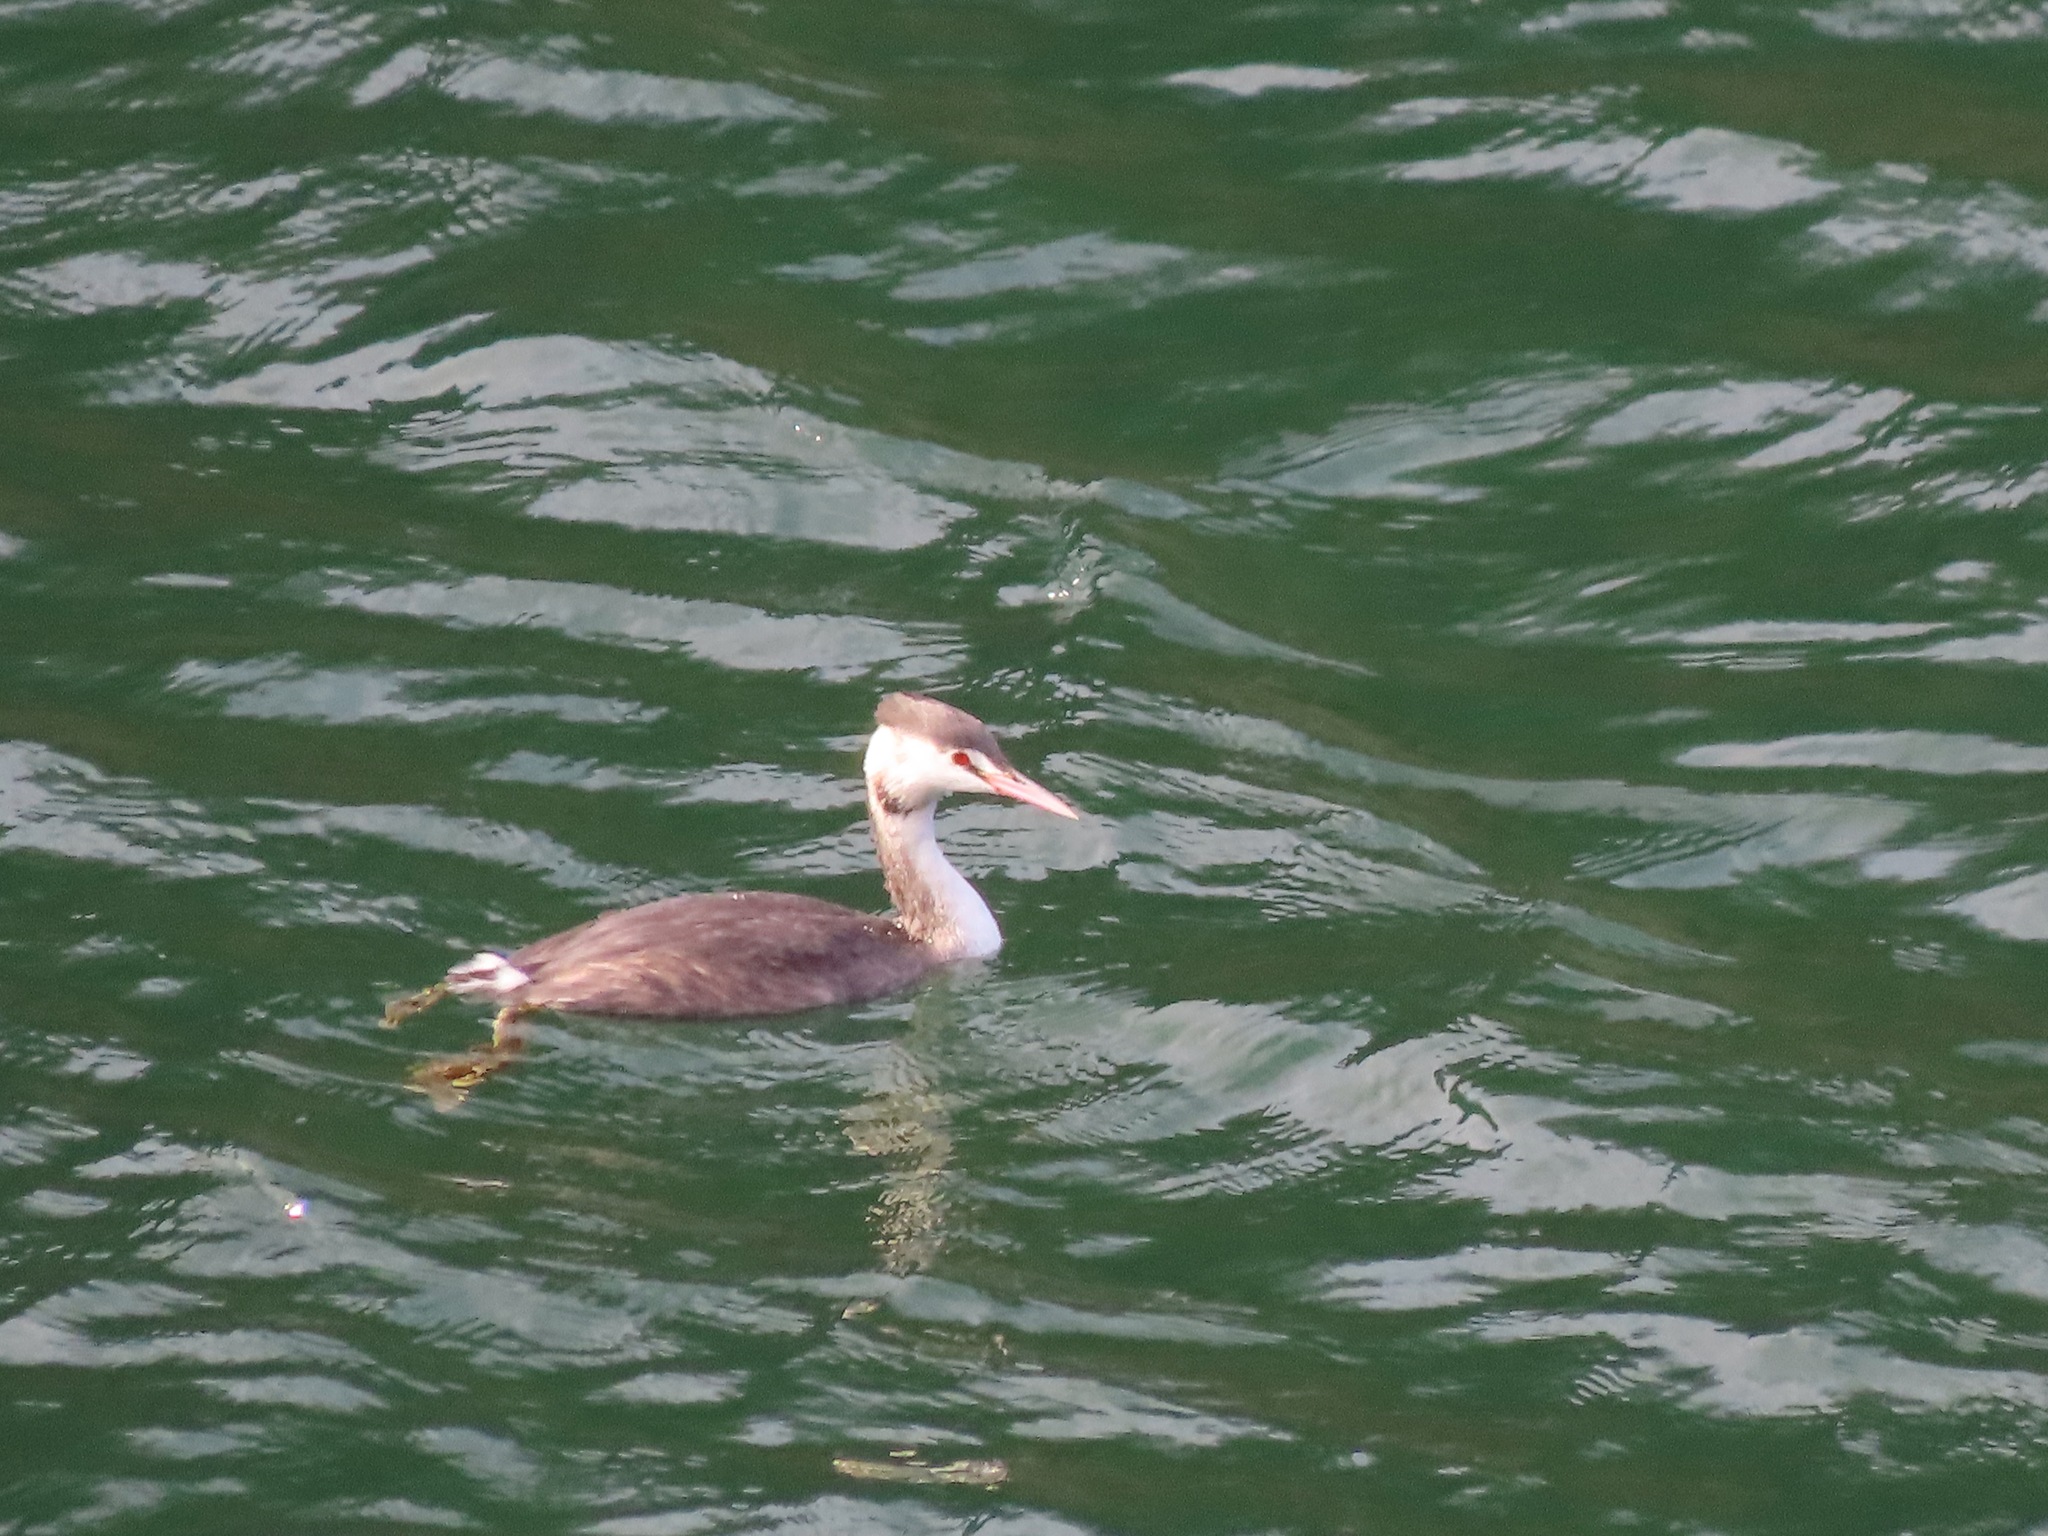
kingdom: Animalia
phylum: Chordata
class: Aves
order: Podicipediformes
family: Podicipedidae
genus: Podiceps
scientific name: Podiceps cristatus
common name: Great crested grebe
